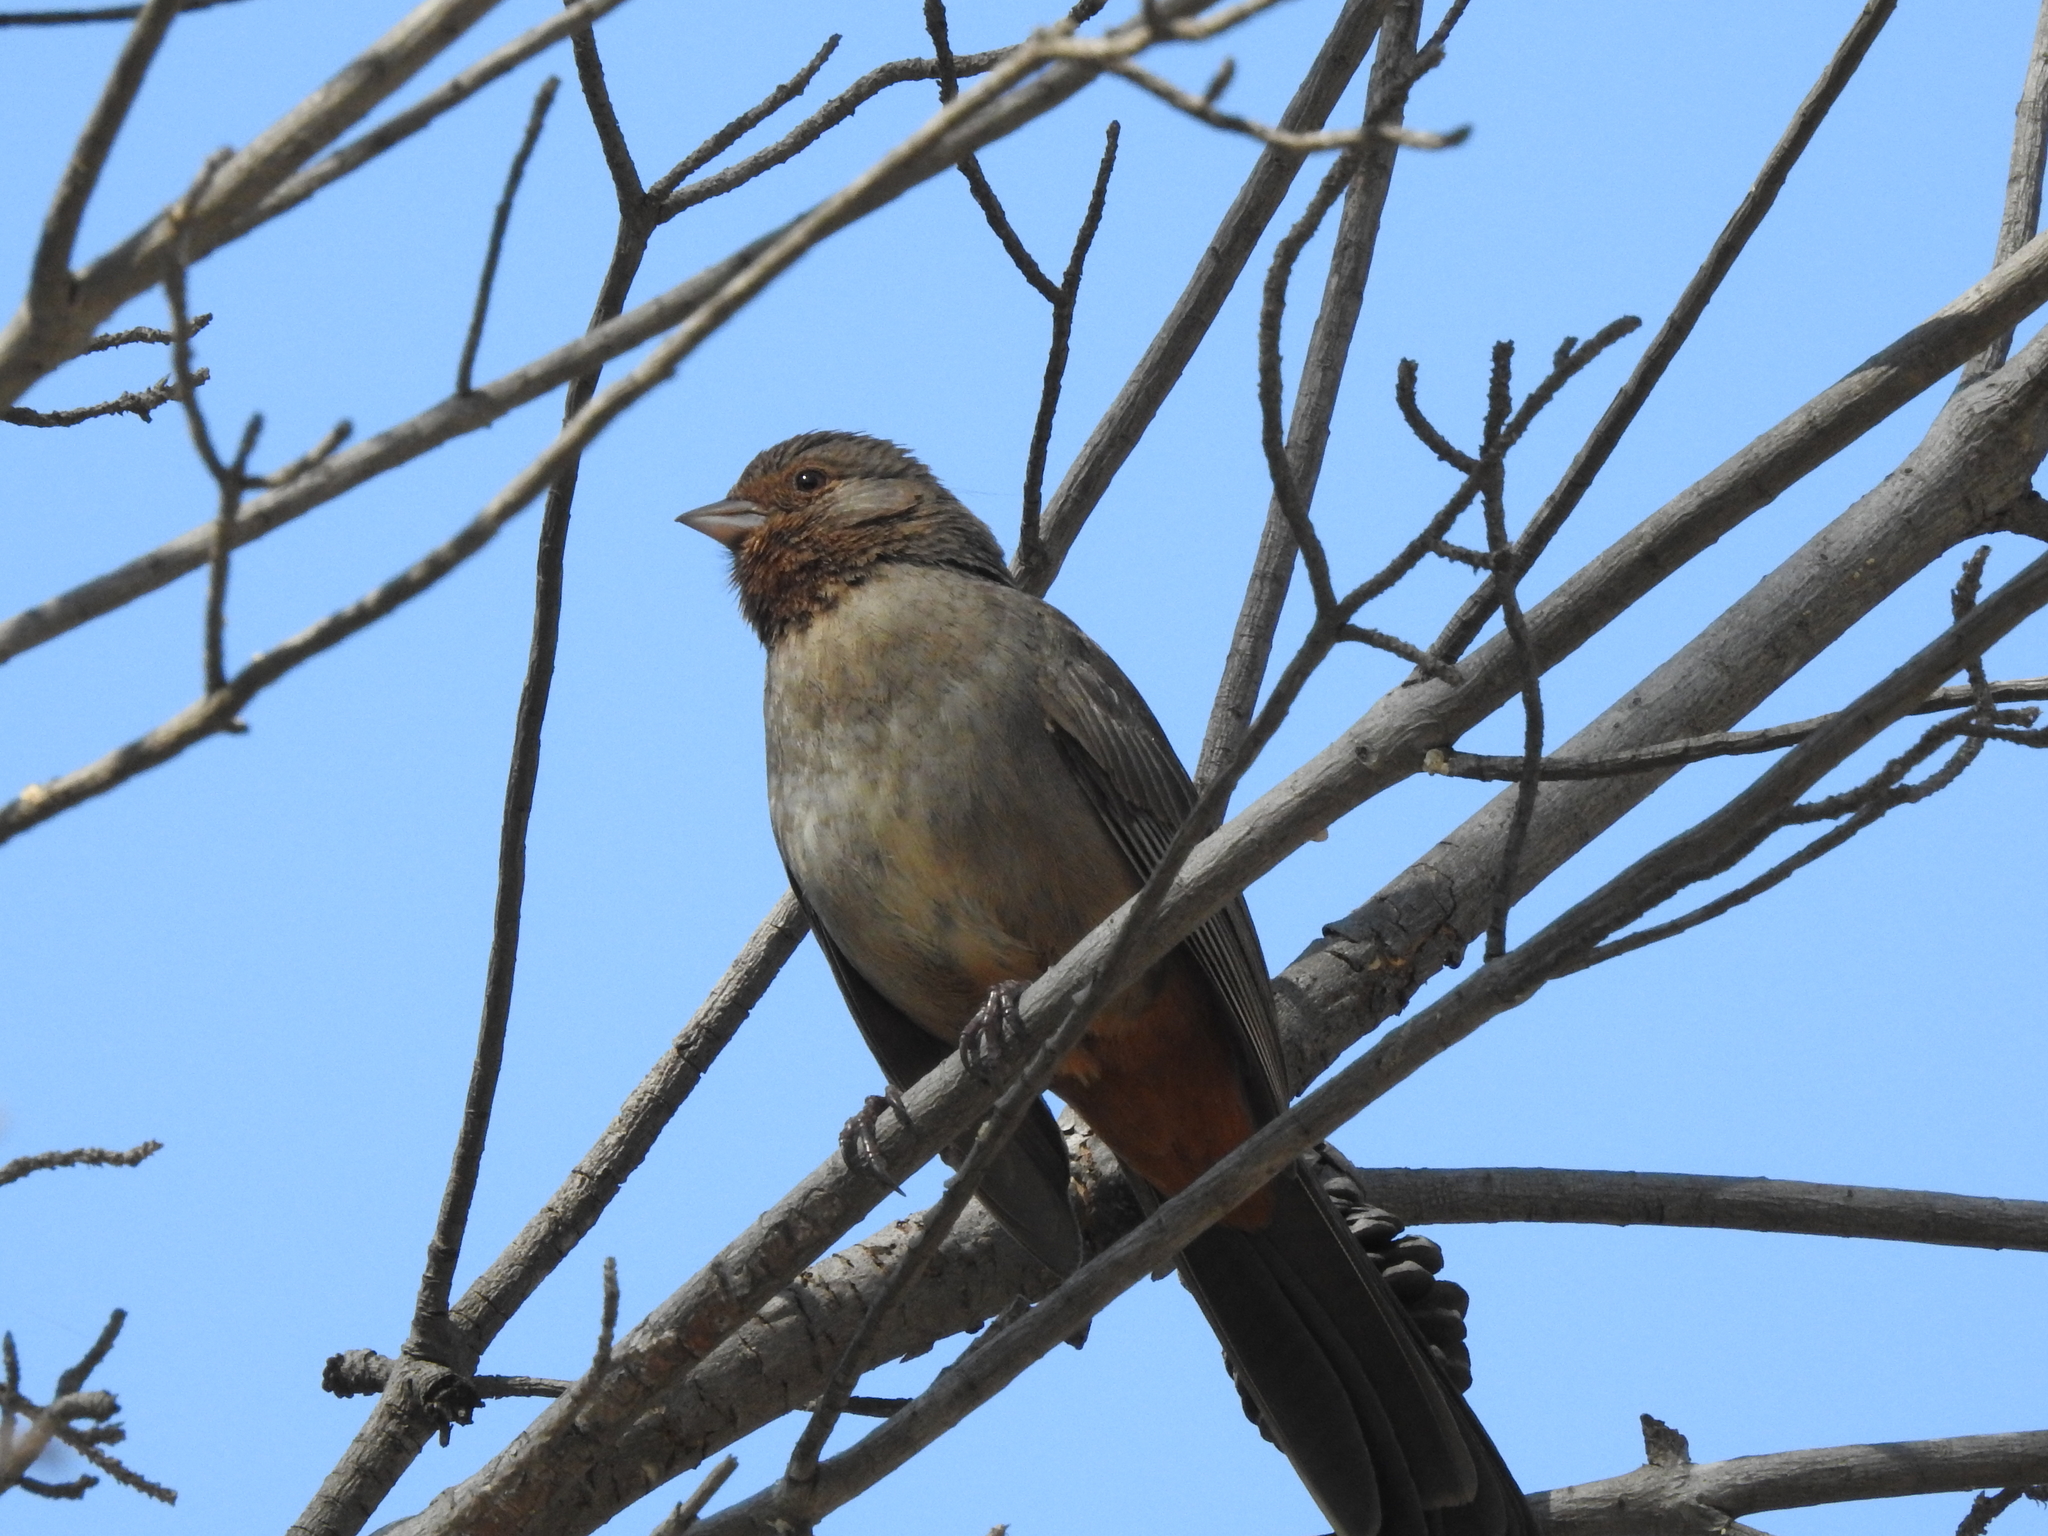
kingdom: Animalia
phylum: Chordata
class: Aves
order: Passeriformes
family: Passerellidae
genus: Melozone
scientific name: Melozone crissalis
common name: California towhee
